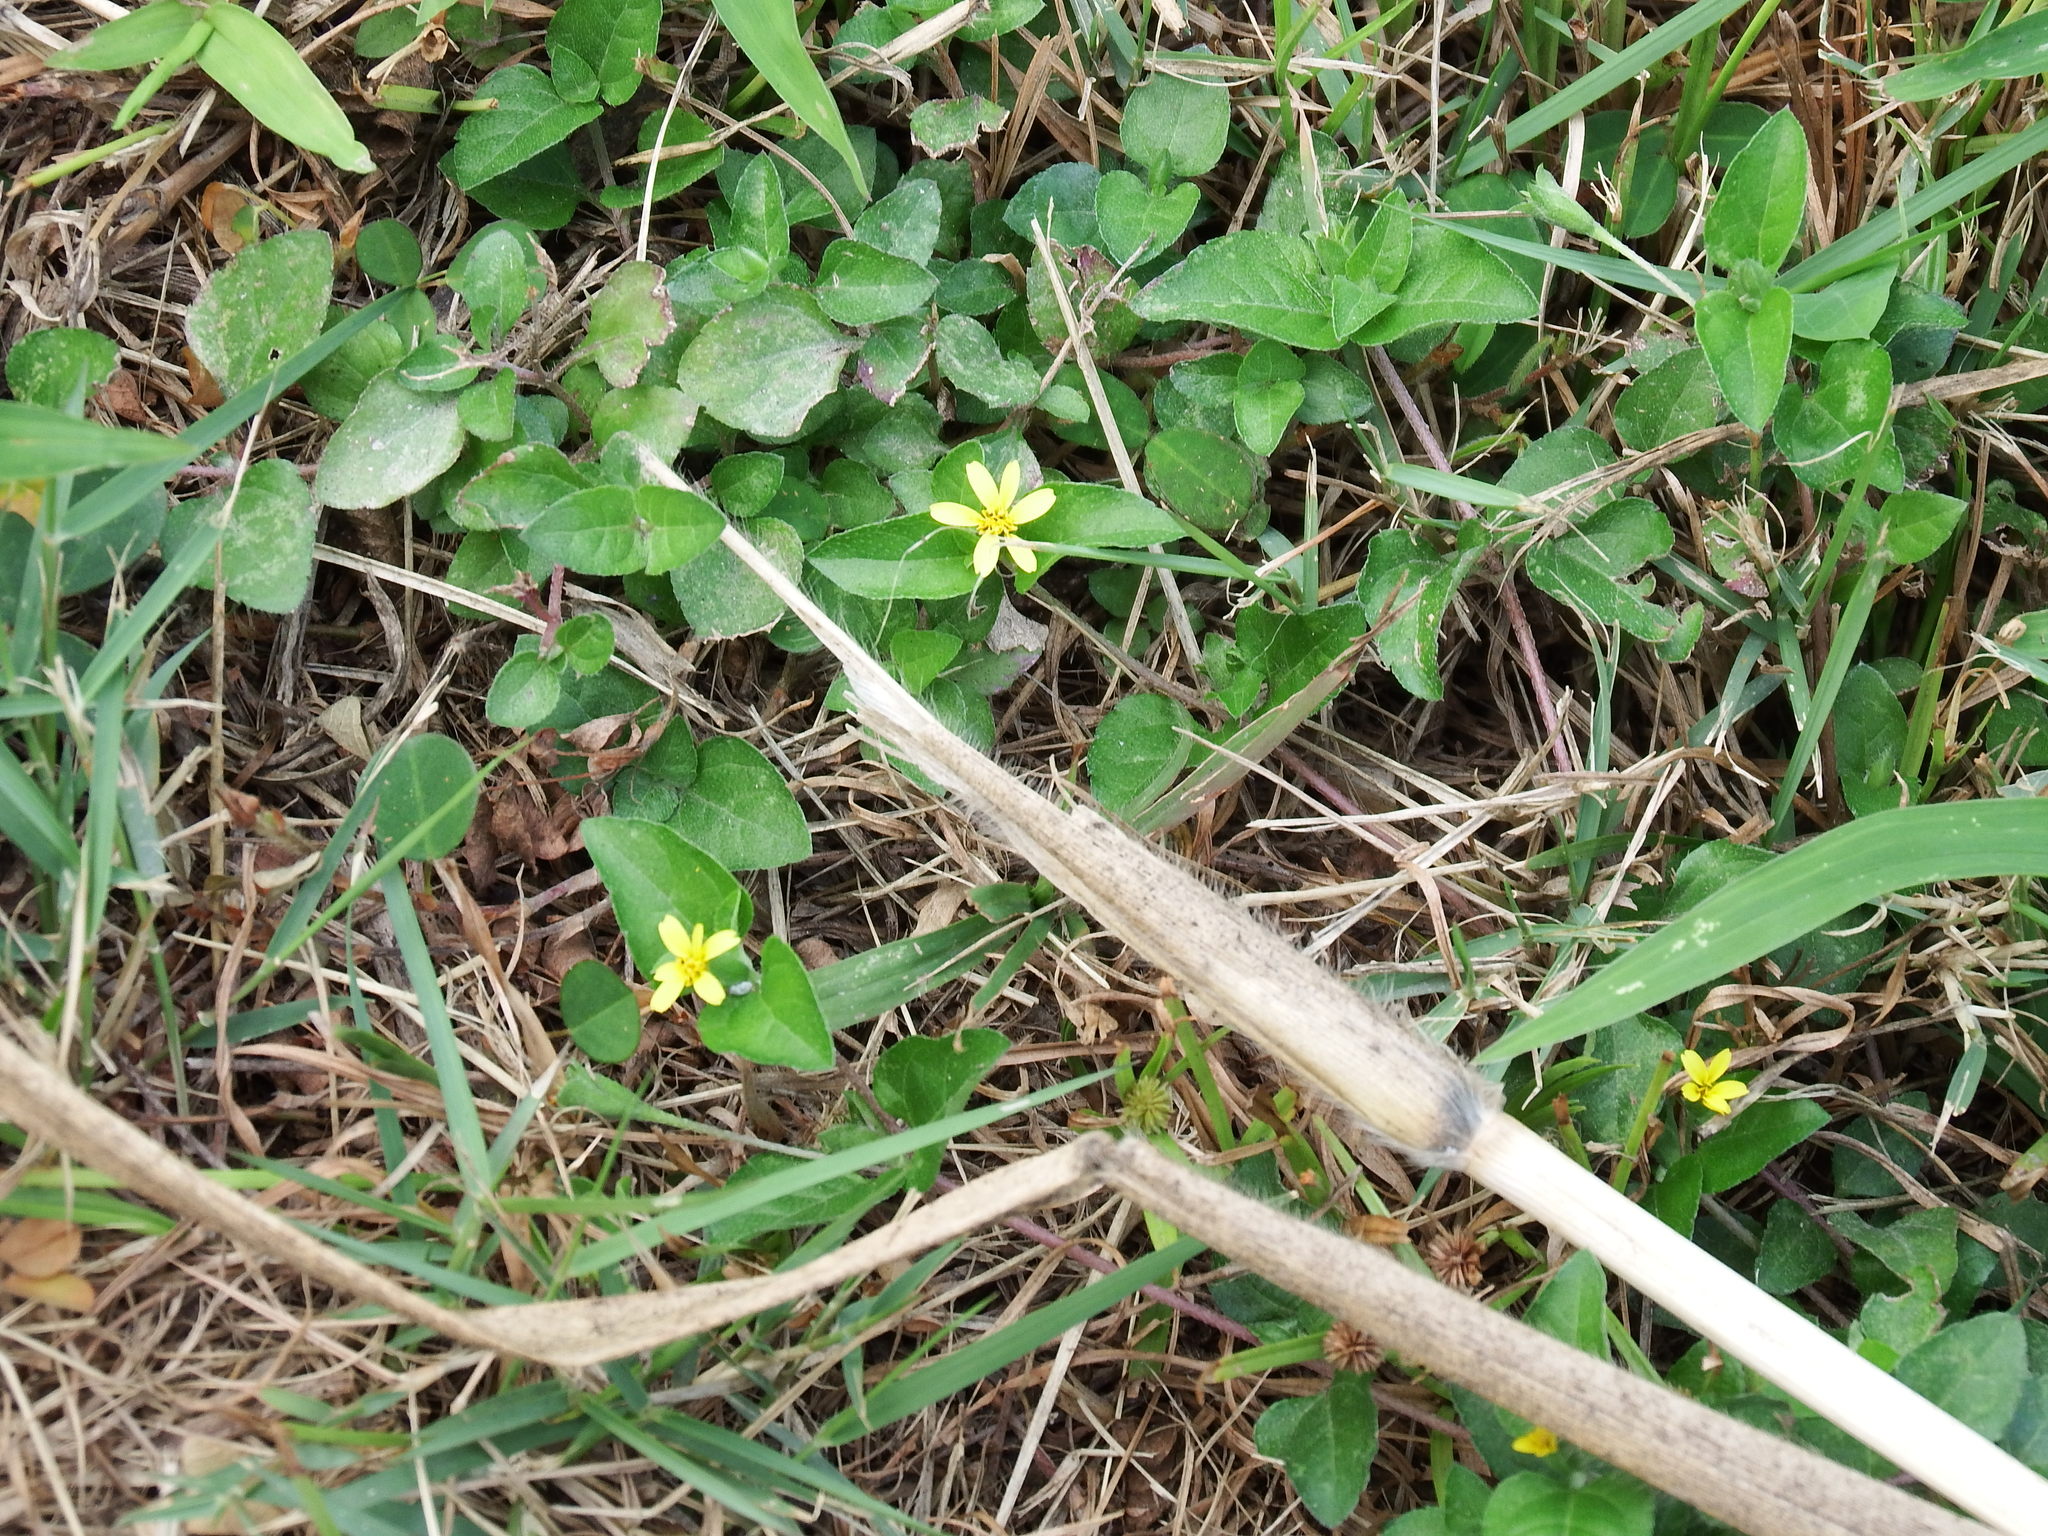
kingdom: Plantae
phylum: Tracheophyta
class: Magnoliopsida
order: Asterales
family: Asteraceae
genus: Calyptocarpus
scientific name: Calyptocarpus vialis
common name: Straggler daisy
